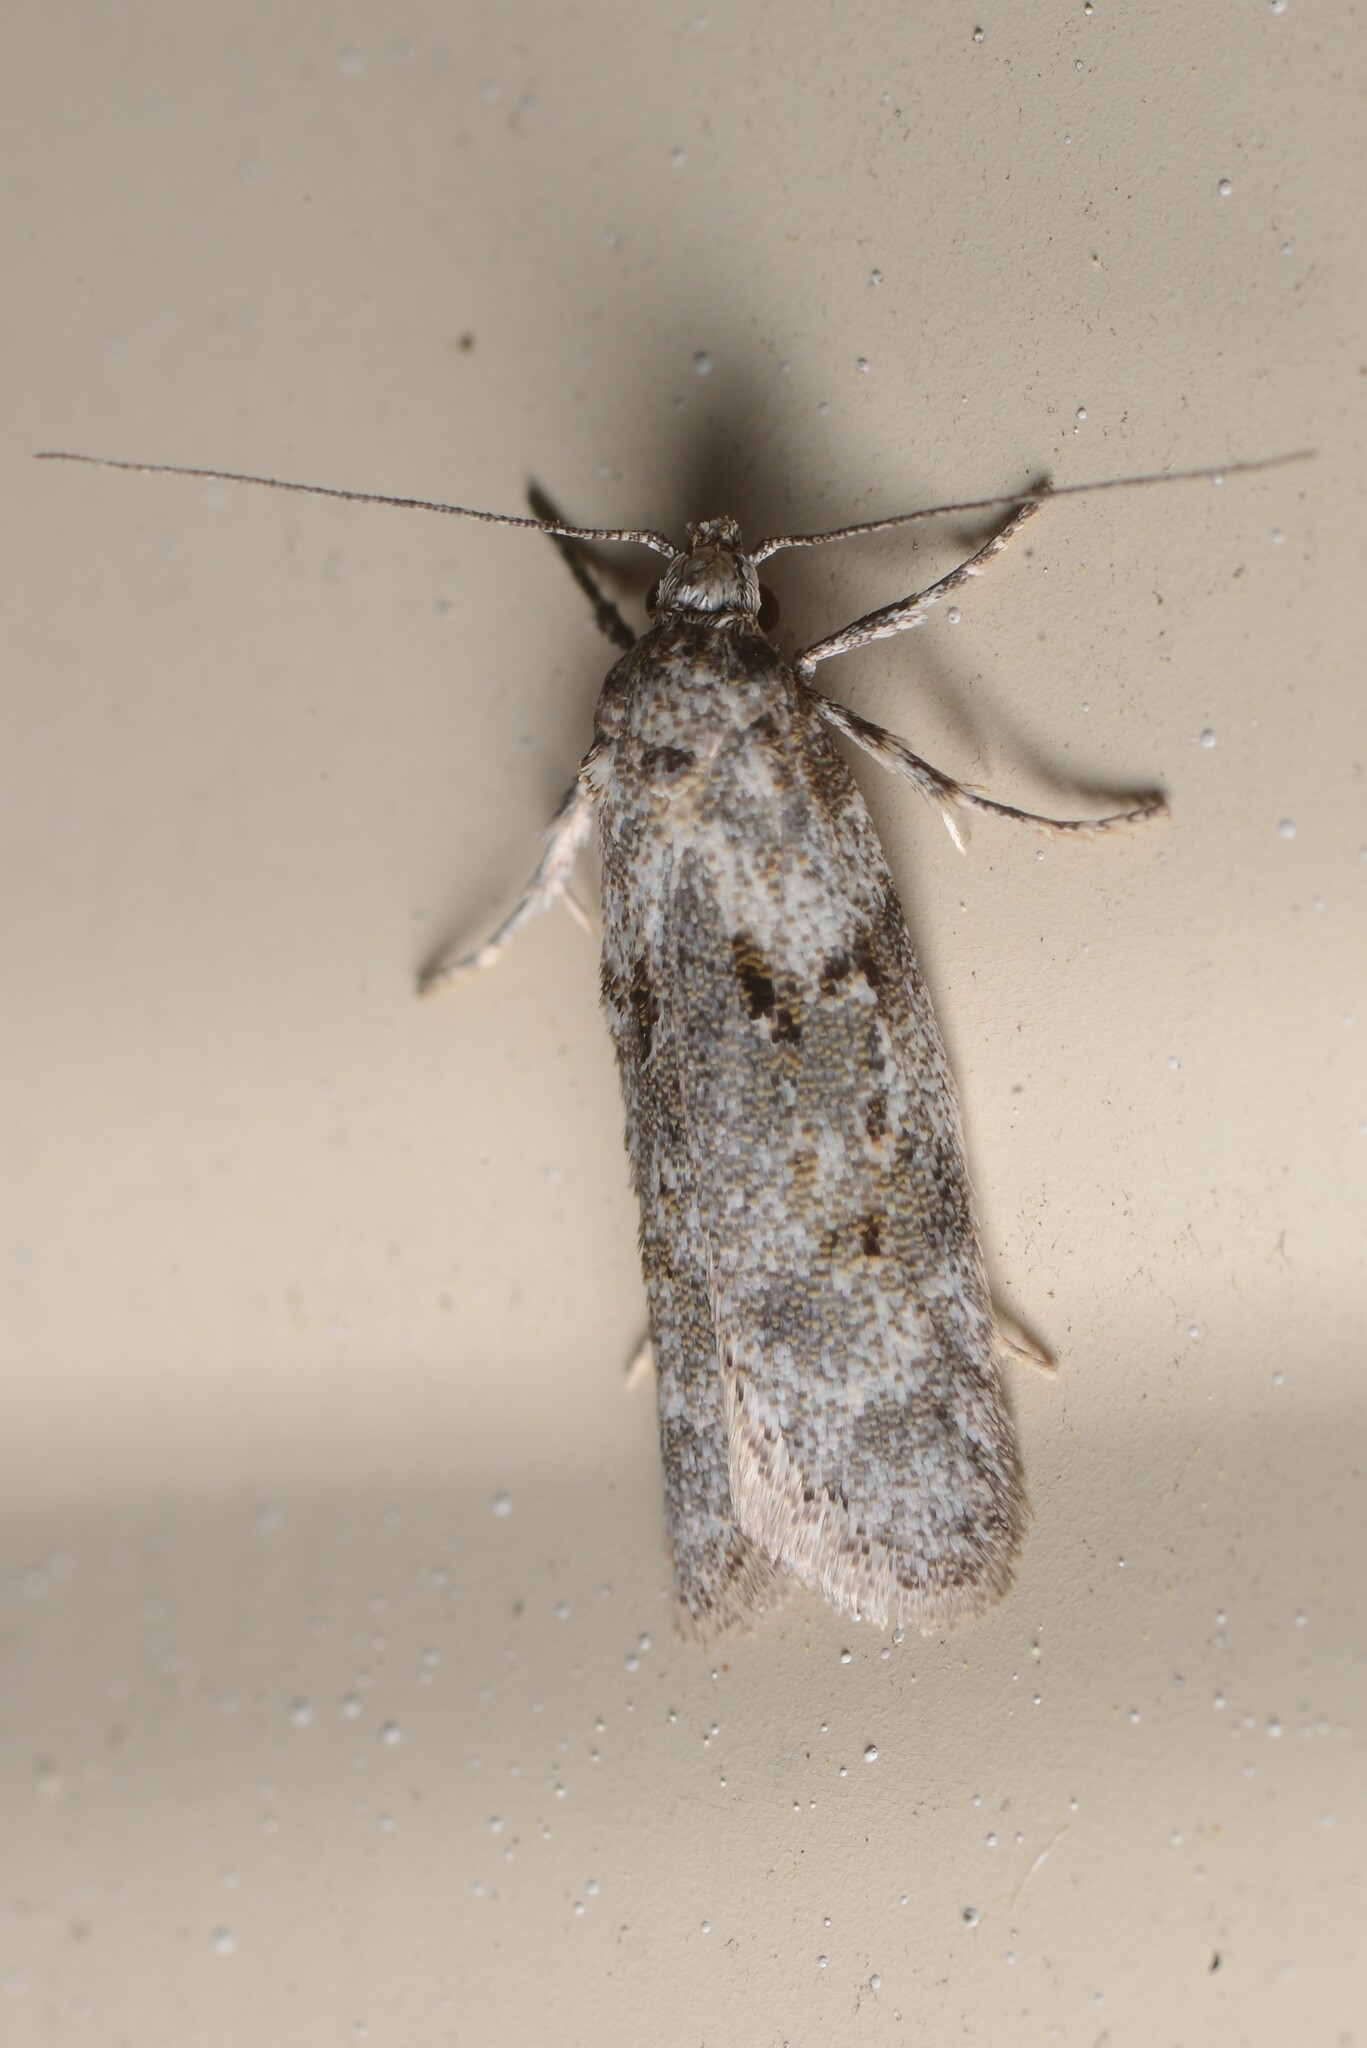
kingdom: Animalia
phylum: Arthropoda
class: Insecta
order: Lepidoptera
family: Oecophoridae
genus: Izatha
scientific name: Izatha convulsella
